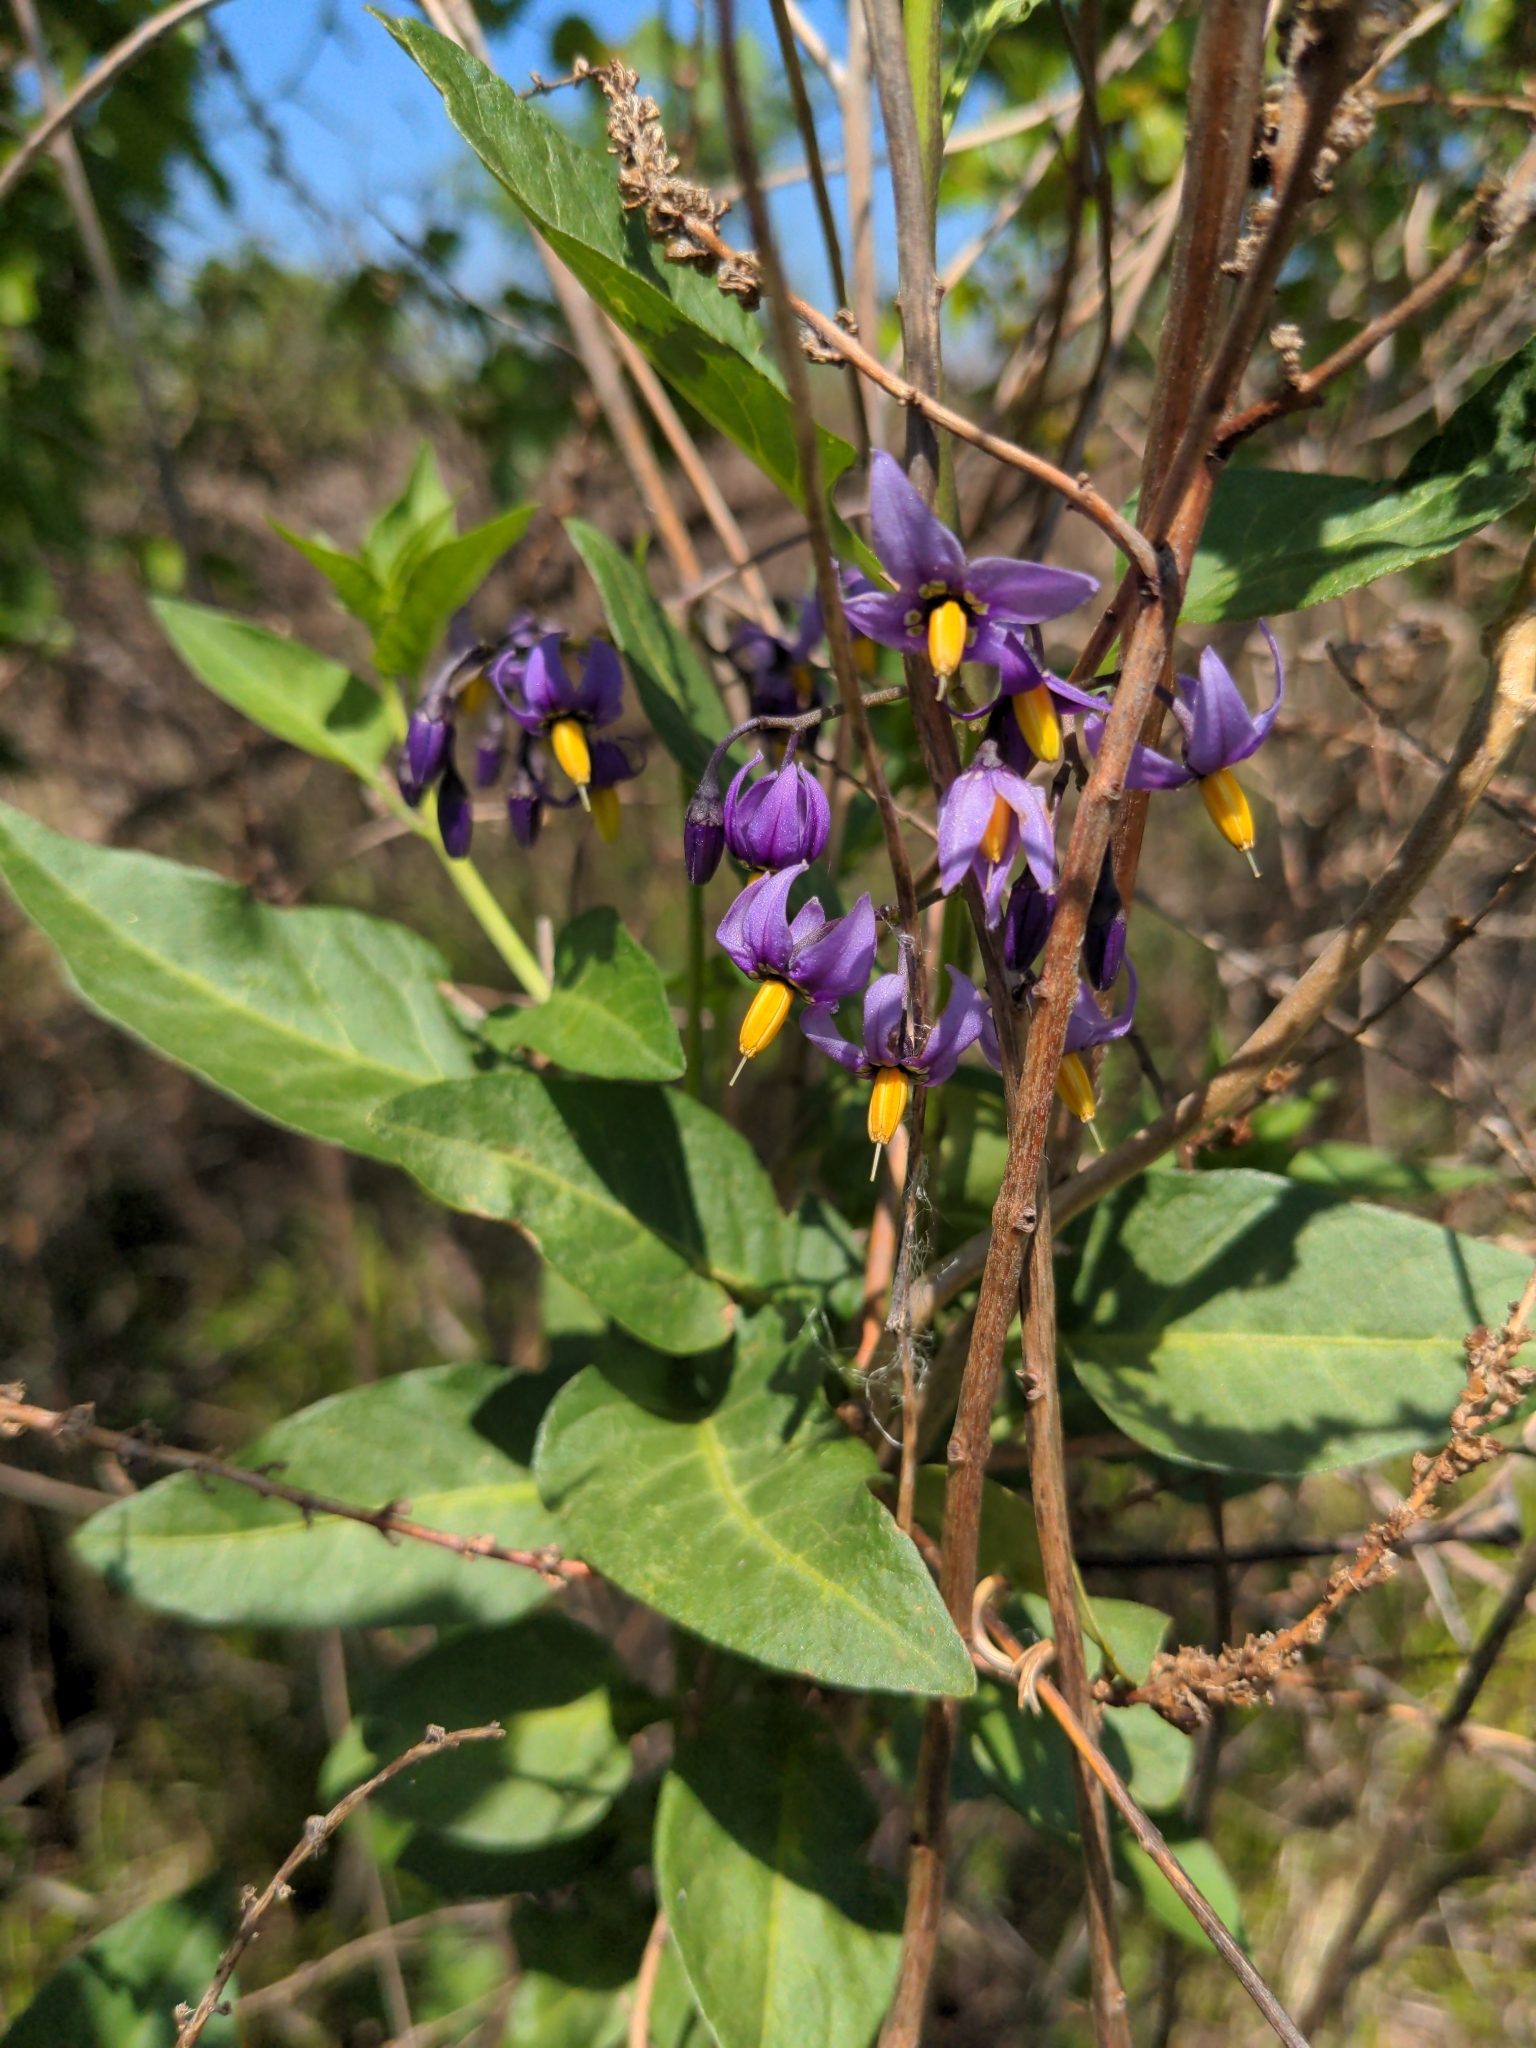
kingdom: Plantae
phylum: Tracheophyta
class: Magnoliopsida
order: Solanales
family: Solanaceae
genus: Solanum
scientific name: Solanum dulcamara
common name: Climbing nightshade
